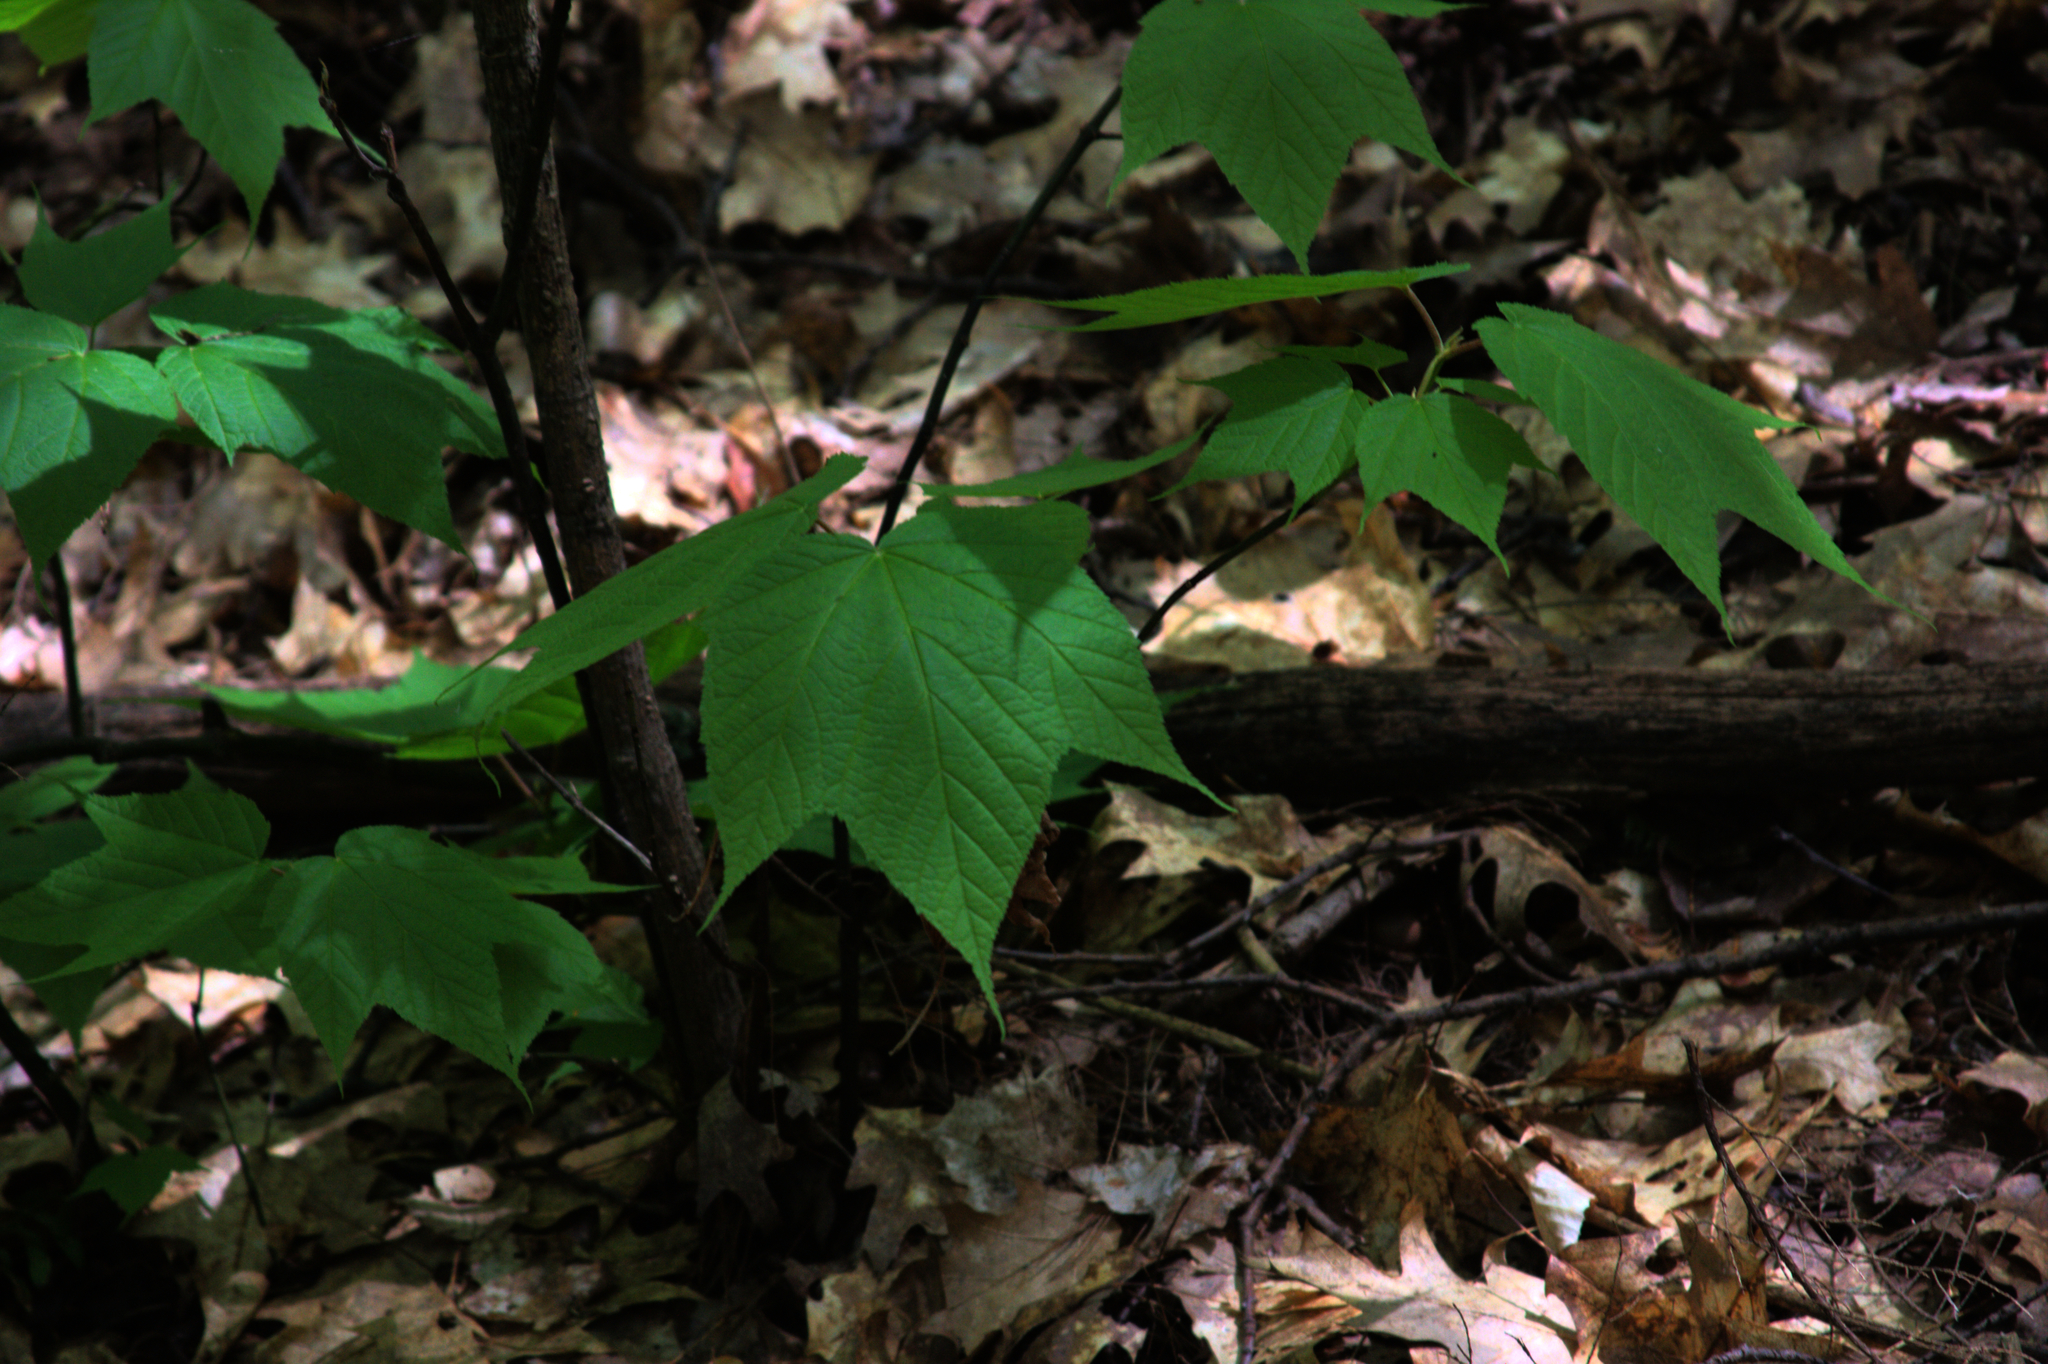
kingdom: Plantae
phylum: Tracheophyta
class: Magnoliopsida
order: Sapindales
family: Sapindaceae
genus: Acer
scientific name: Acer pensylvanicum
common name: Moosewood
